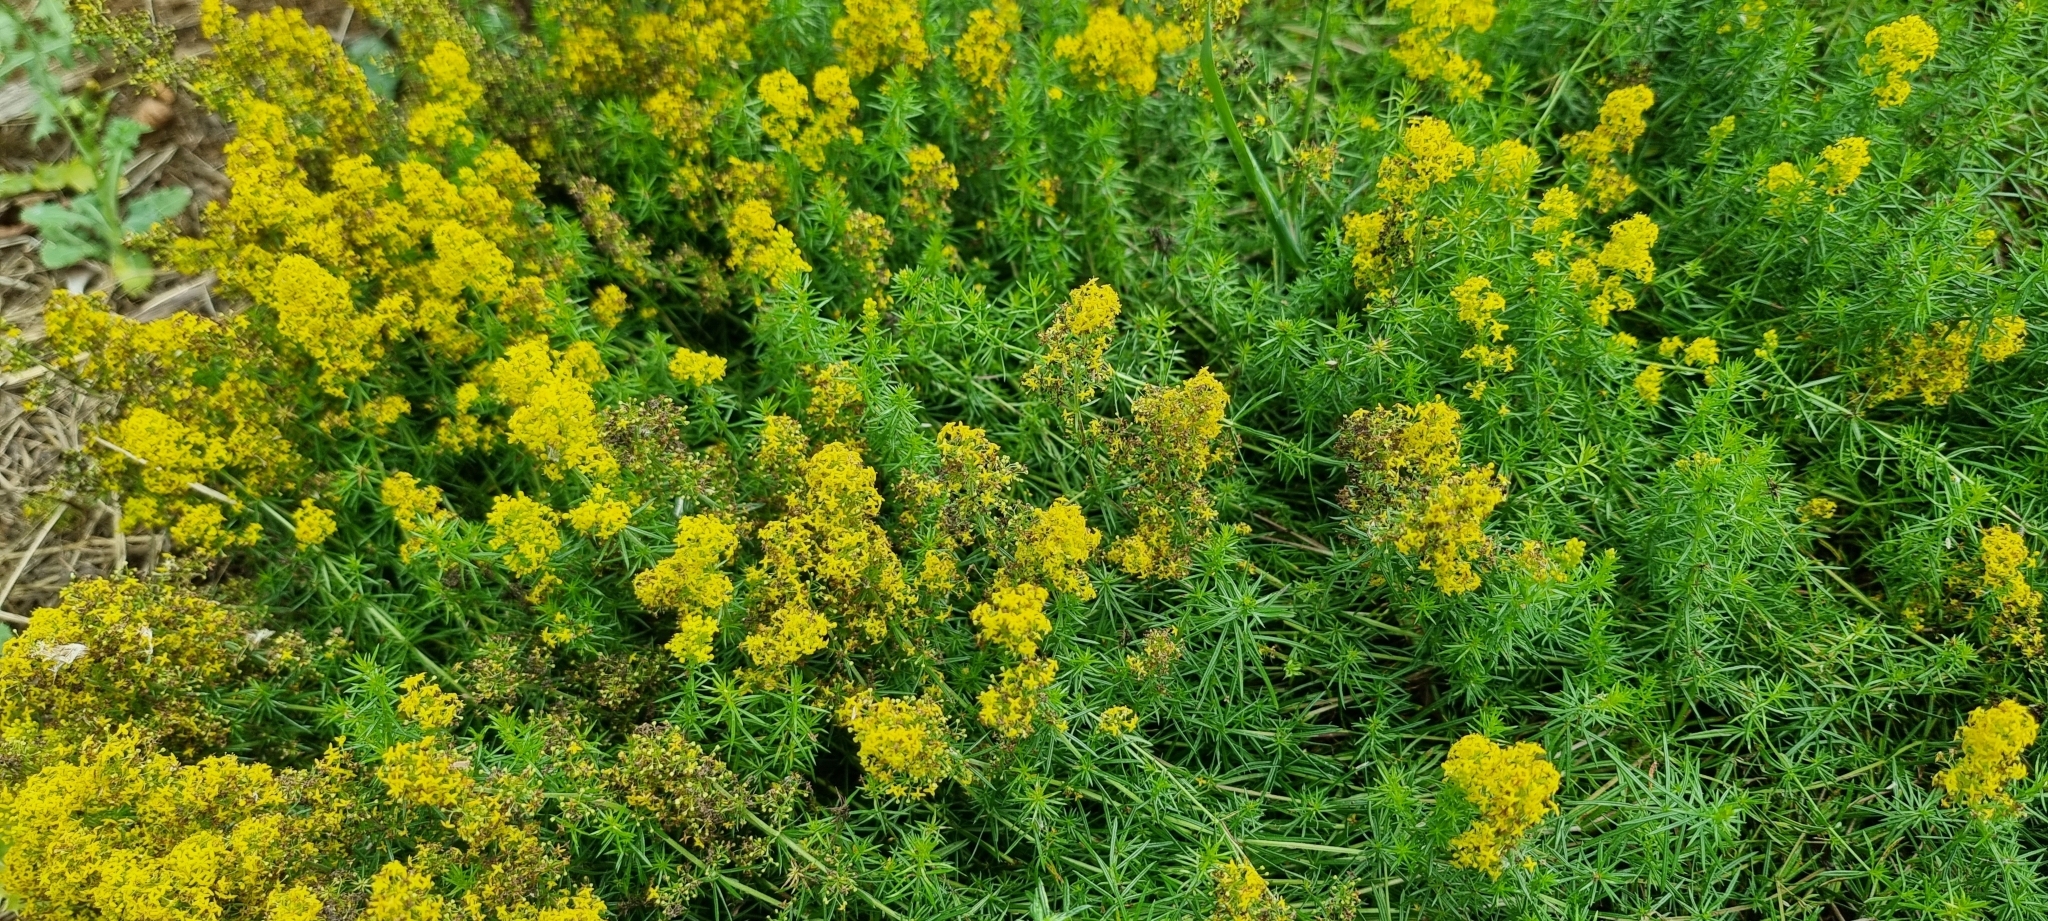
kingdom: Plantae
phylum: Tracheophyta
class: Magnoliopsida
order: Gentianales
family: Rubiaceae
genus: Galium
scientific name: Galium verum
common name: Lady's bedstraw
